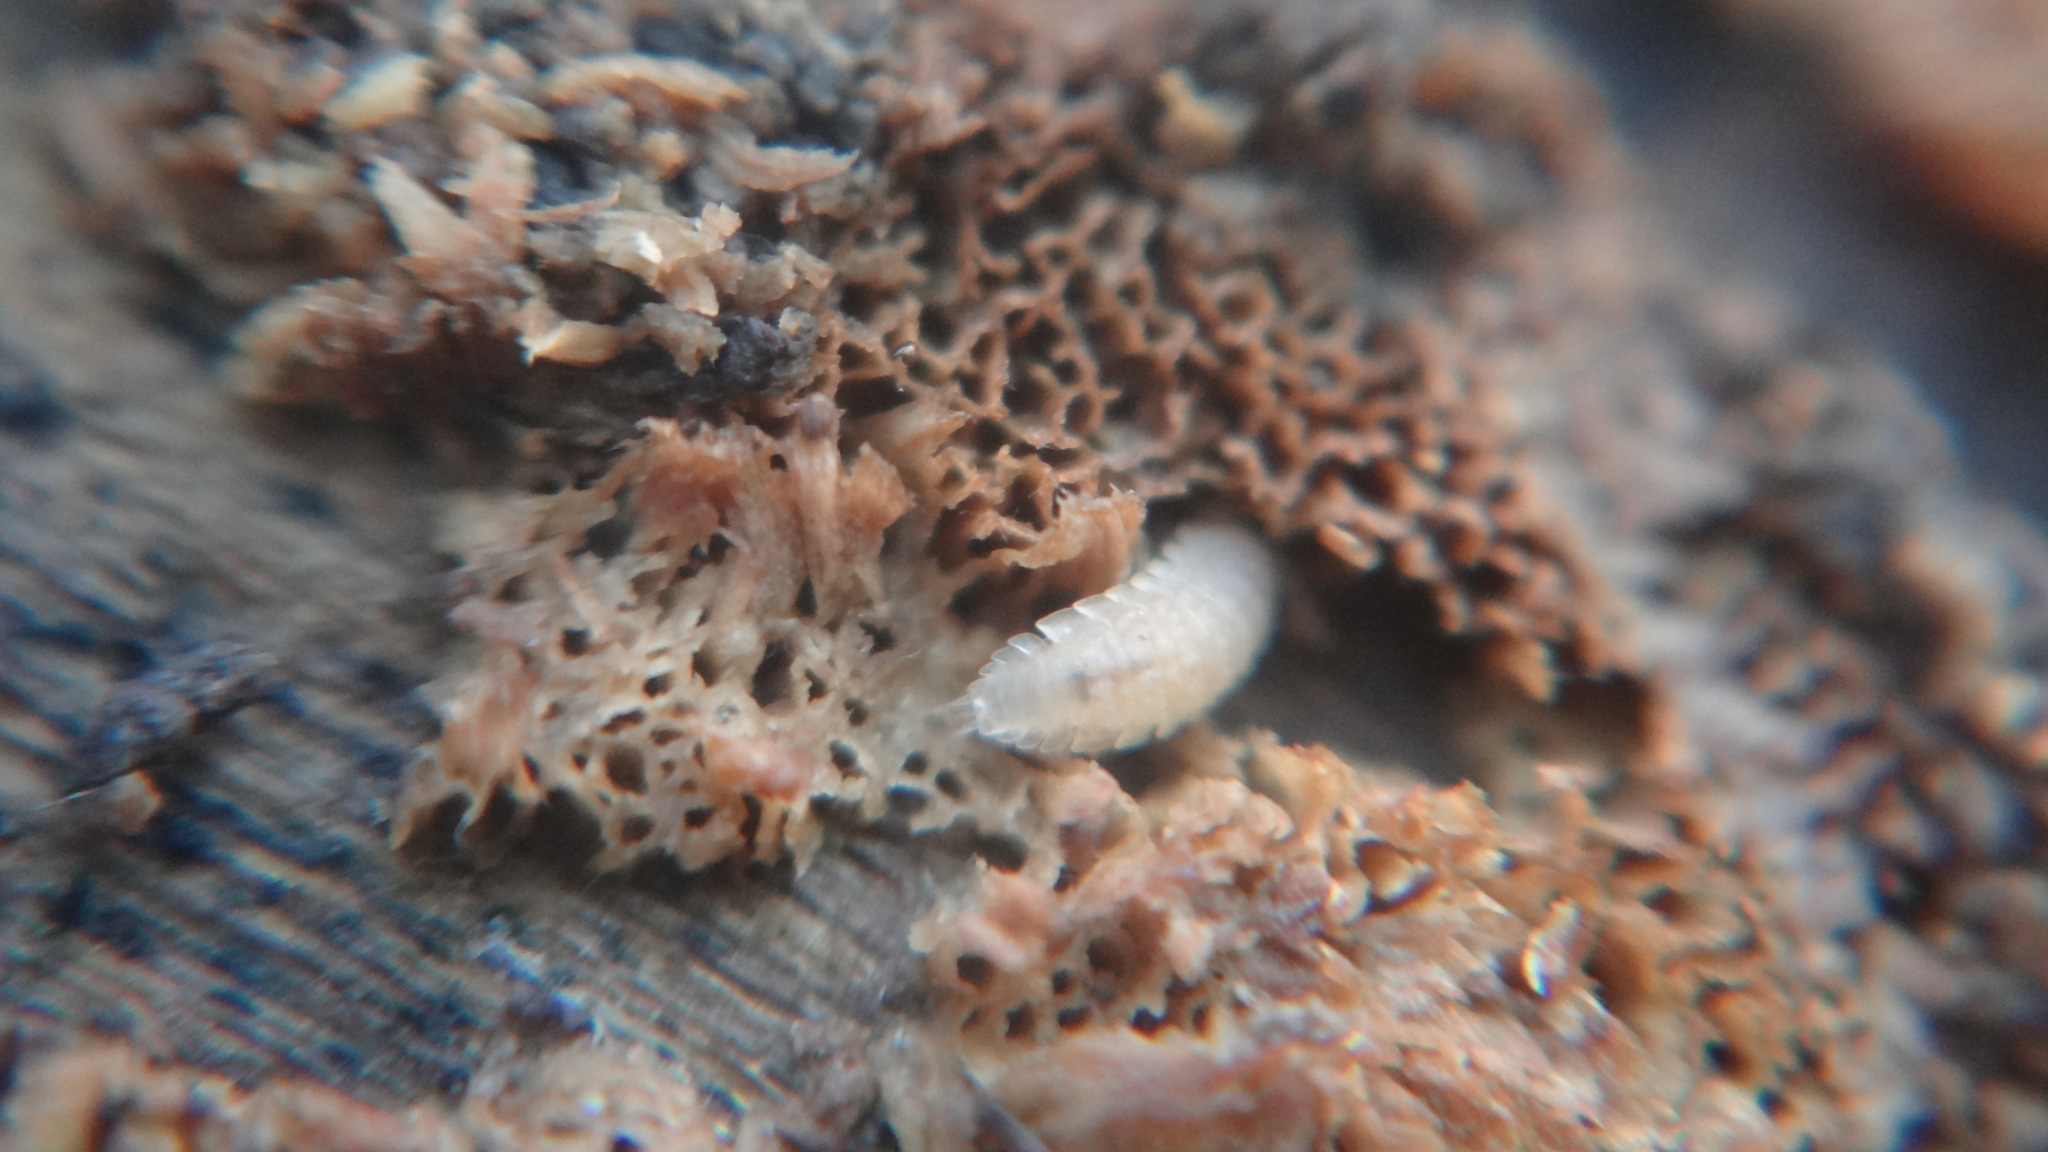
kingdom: Animalia
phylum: Arthropoda
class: Malacostraca
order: Isopoda
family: Trichoniscidae
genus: Haplophthalmus
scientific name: Haplophthalmus danicus
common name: Pillbug
